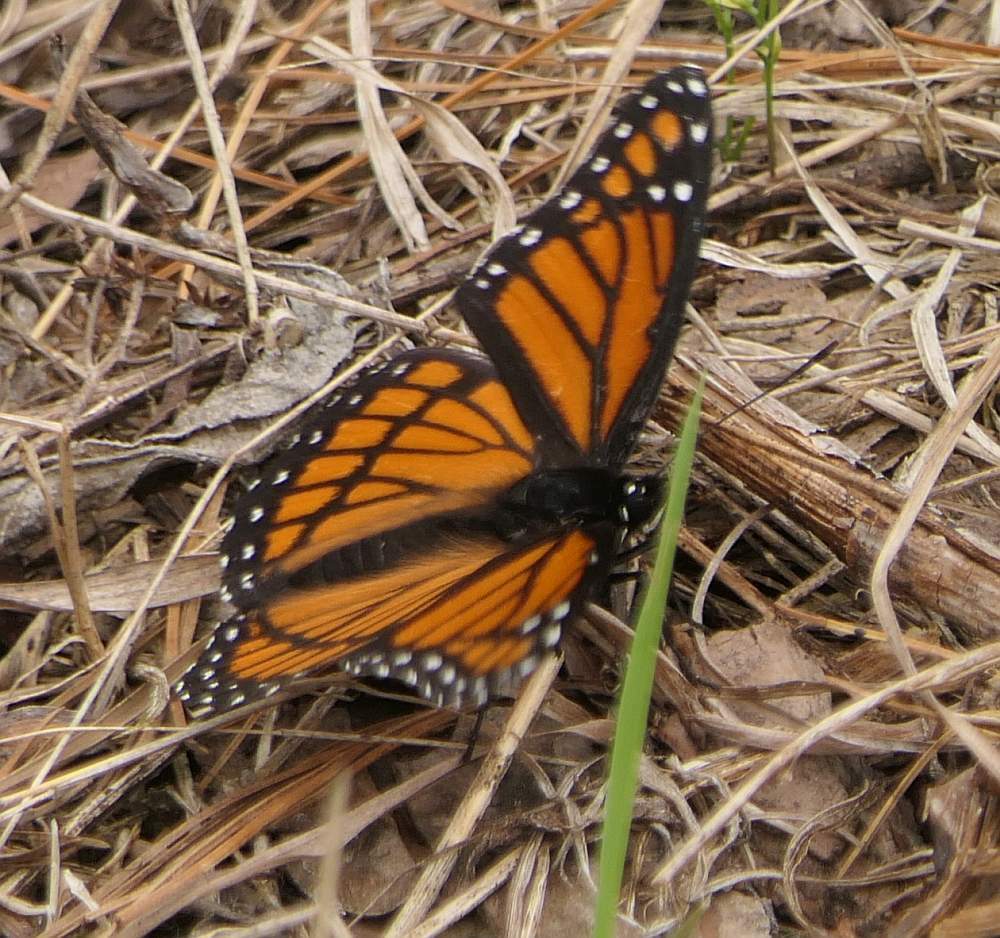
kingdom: Animalia
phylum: Arthropoda
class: Insecta
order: Lepidoptera
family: Nymphalidae
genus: Limenitis
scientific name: Limenitis archippus
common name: Viceroy
